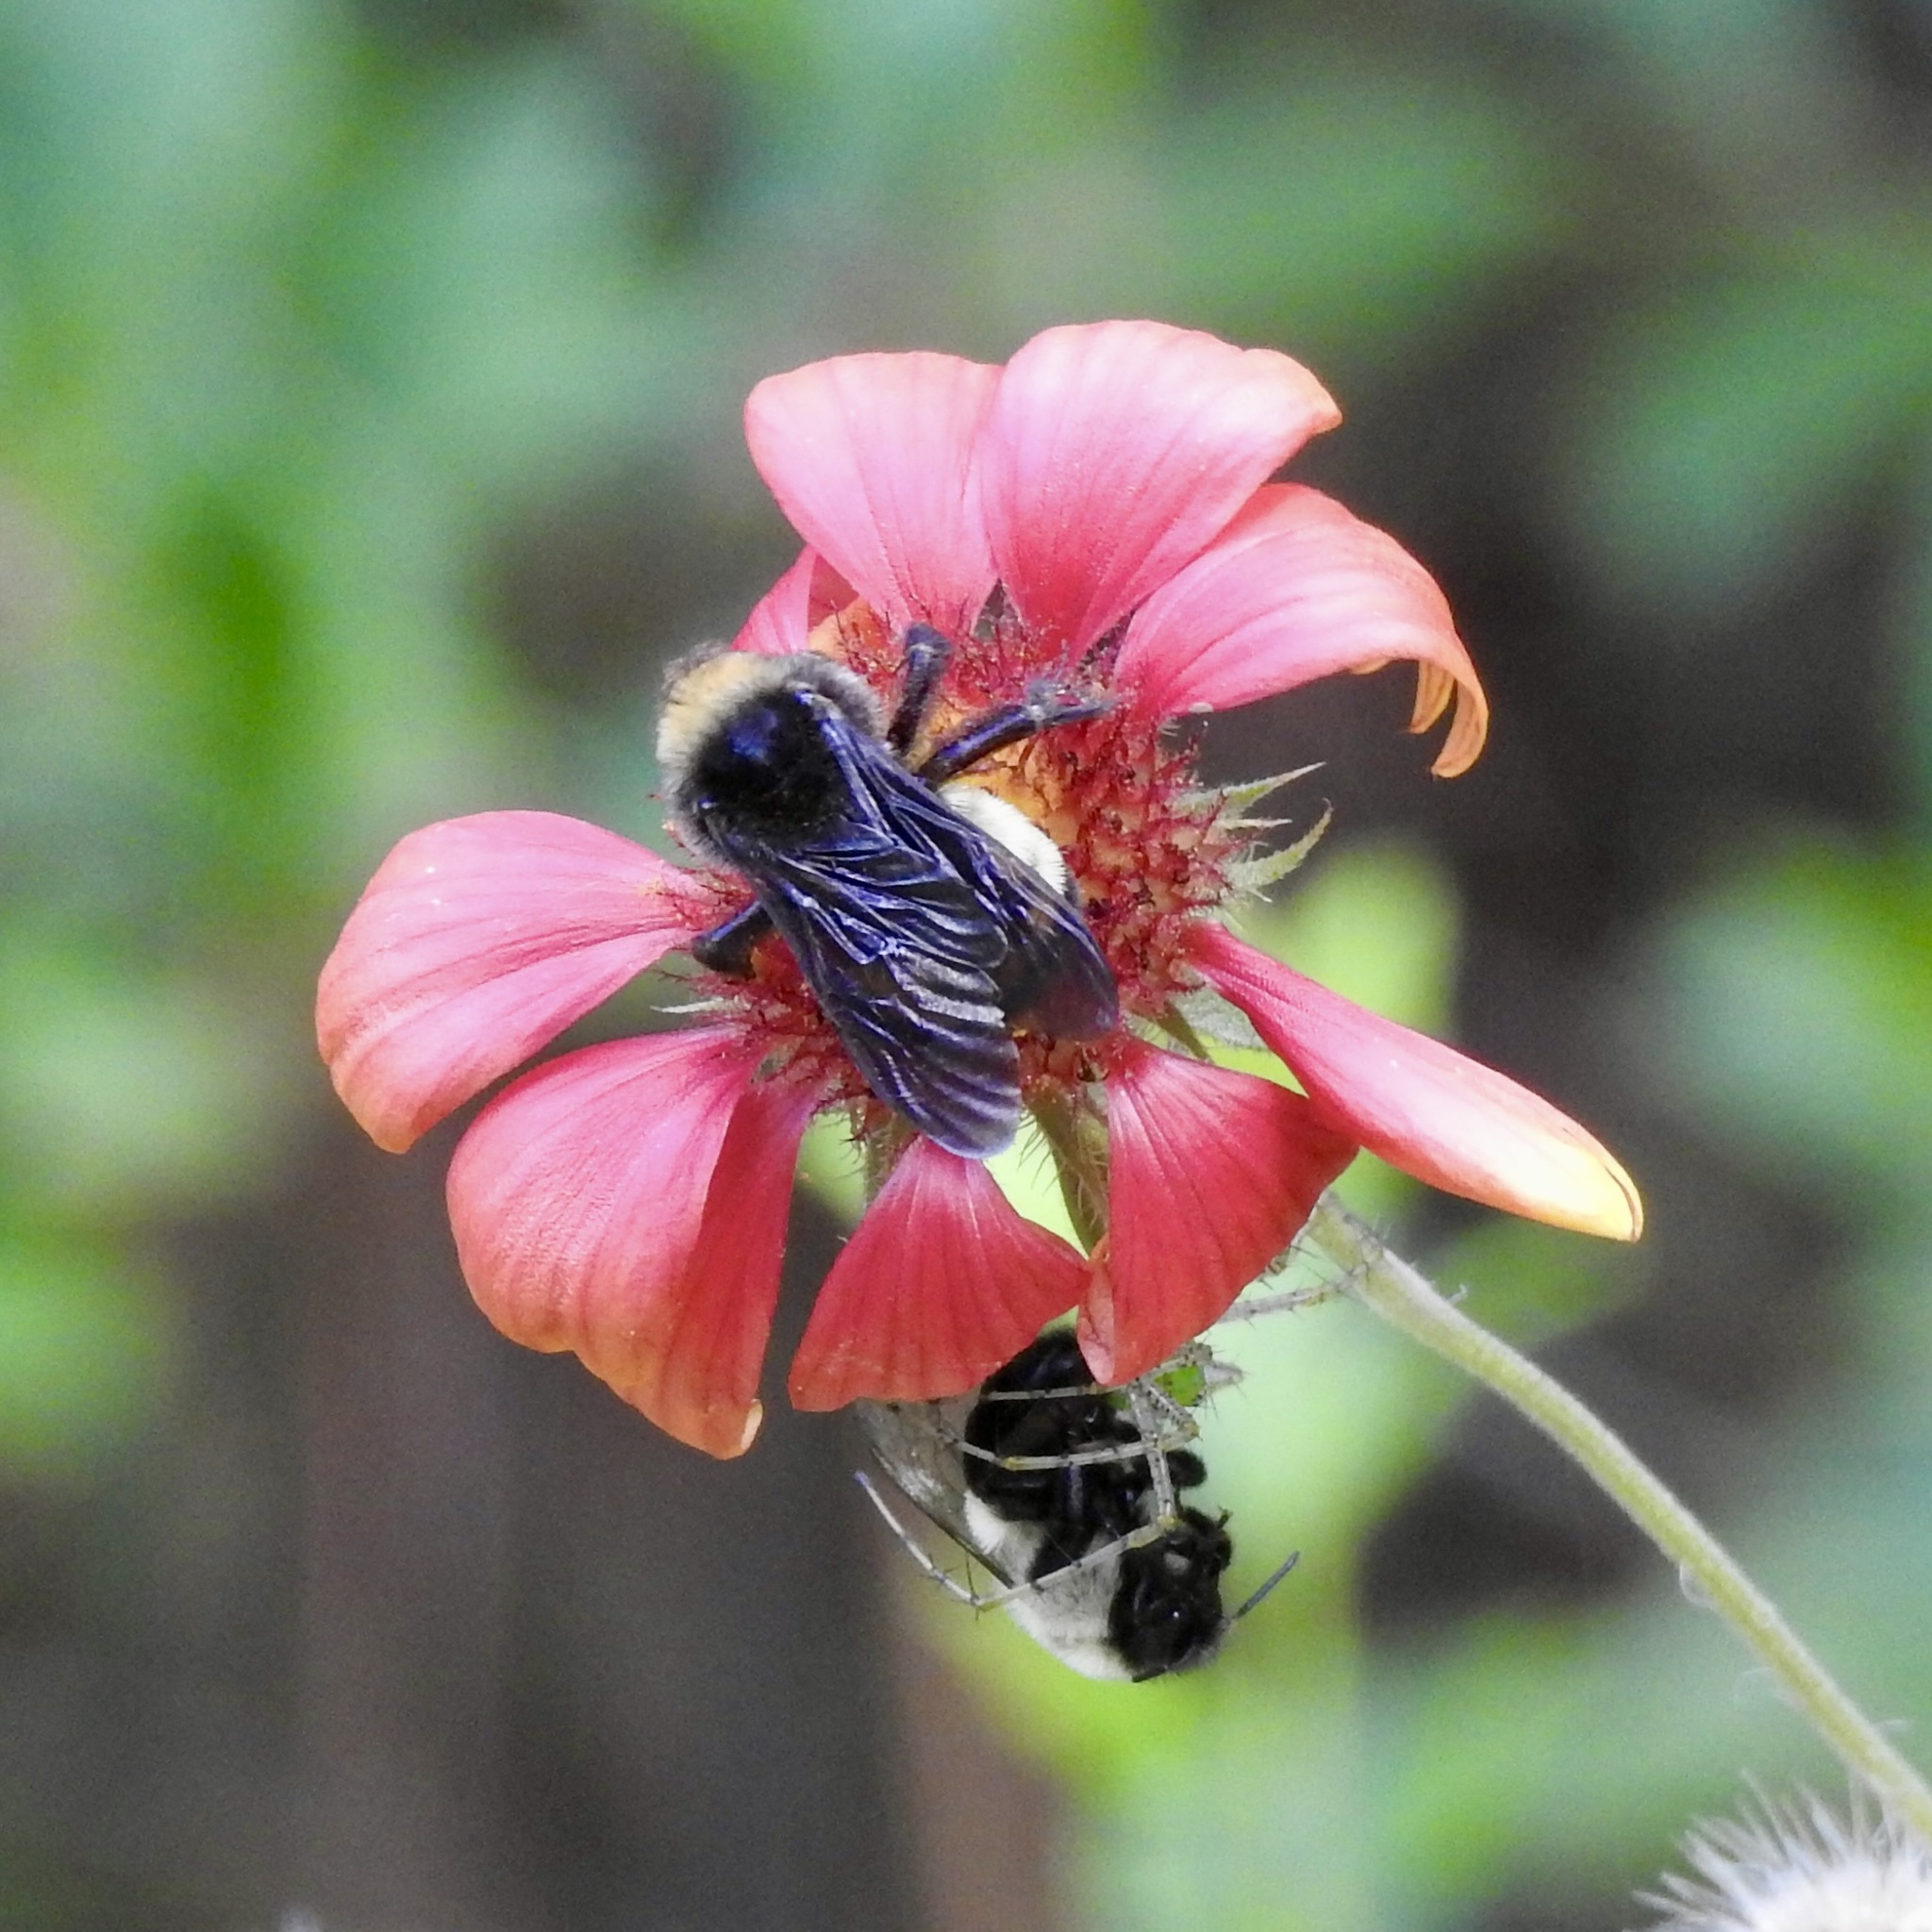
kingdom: Animalia
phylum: Arthropoda
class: Insecta
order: Hymenoptera
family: Apidae
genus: Bombus
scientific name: Bombus pensylvanicus
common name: Bumble bee
